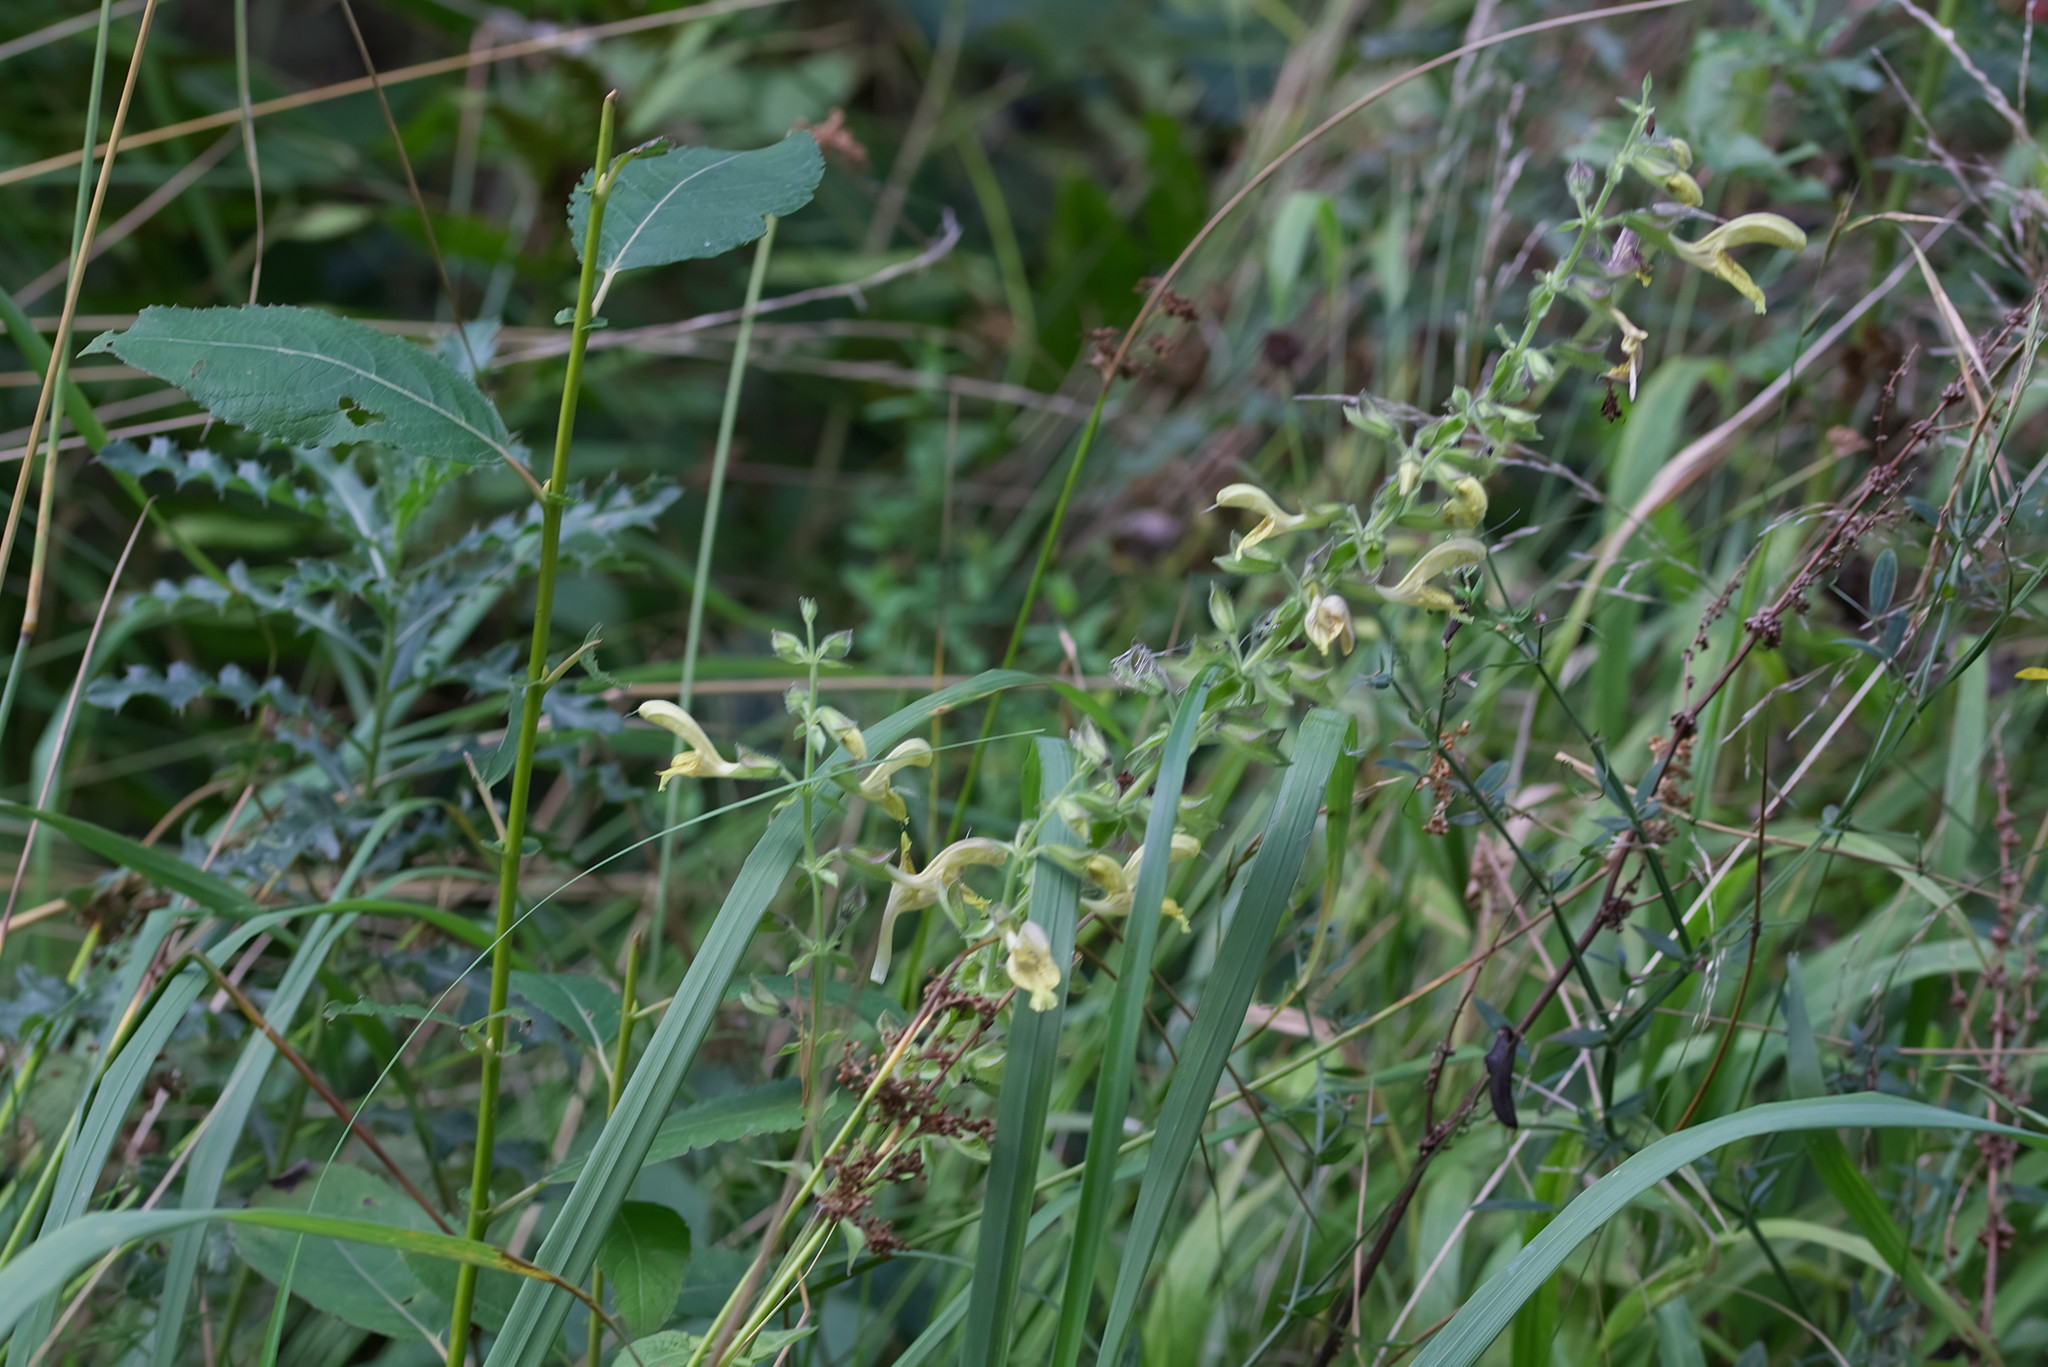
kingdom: Plantae
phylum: Tracheophyta
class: Magnoliopsida
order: Lamiales
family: Lamiaceae
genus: Salvia
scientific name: Salvia glutinosa
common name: Sticky clary
